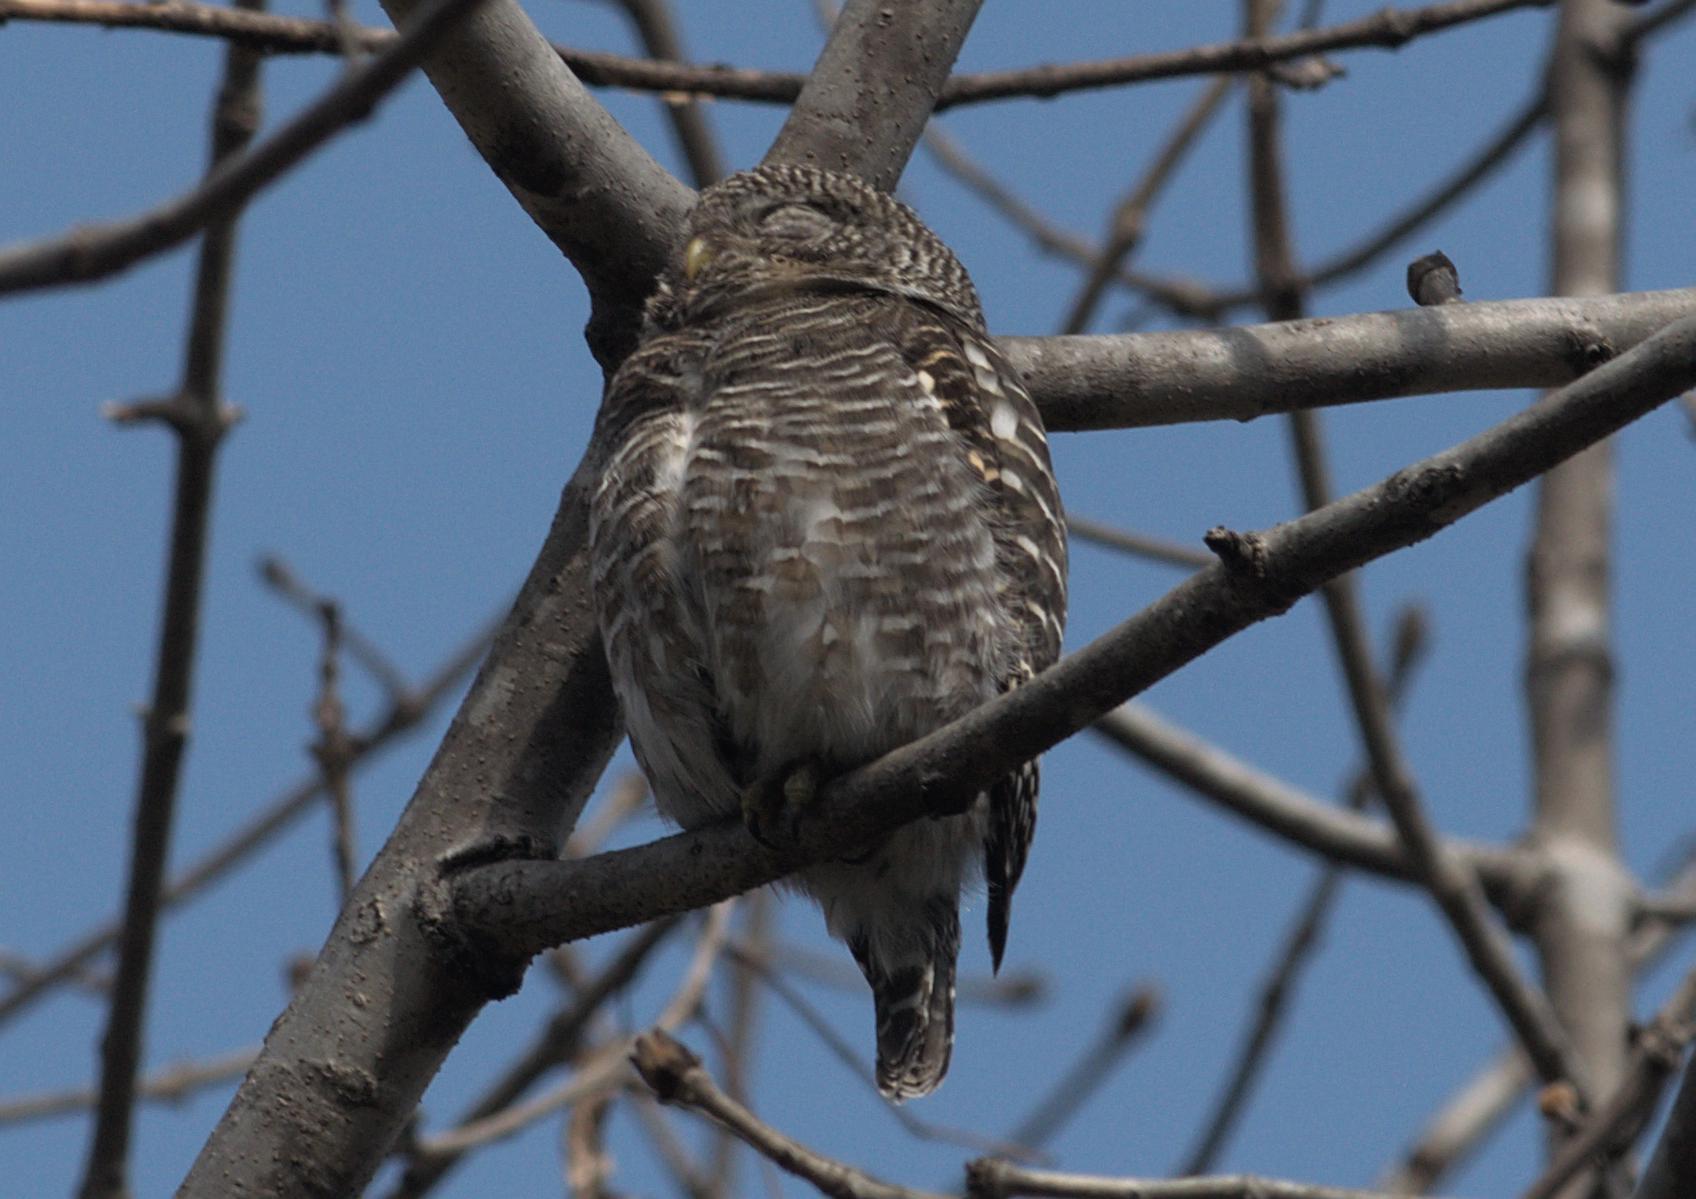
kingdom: Animalia
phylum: Chordata
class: Aves
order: Strigiformes
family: Strigidae
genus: Glaucidium
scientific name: Glaucidium cuculoides
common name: Asian barred owlet
